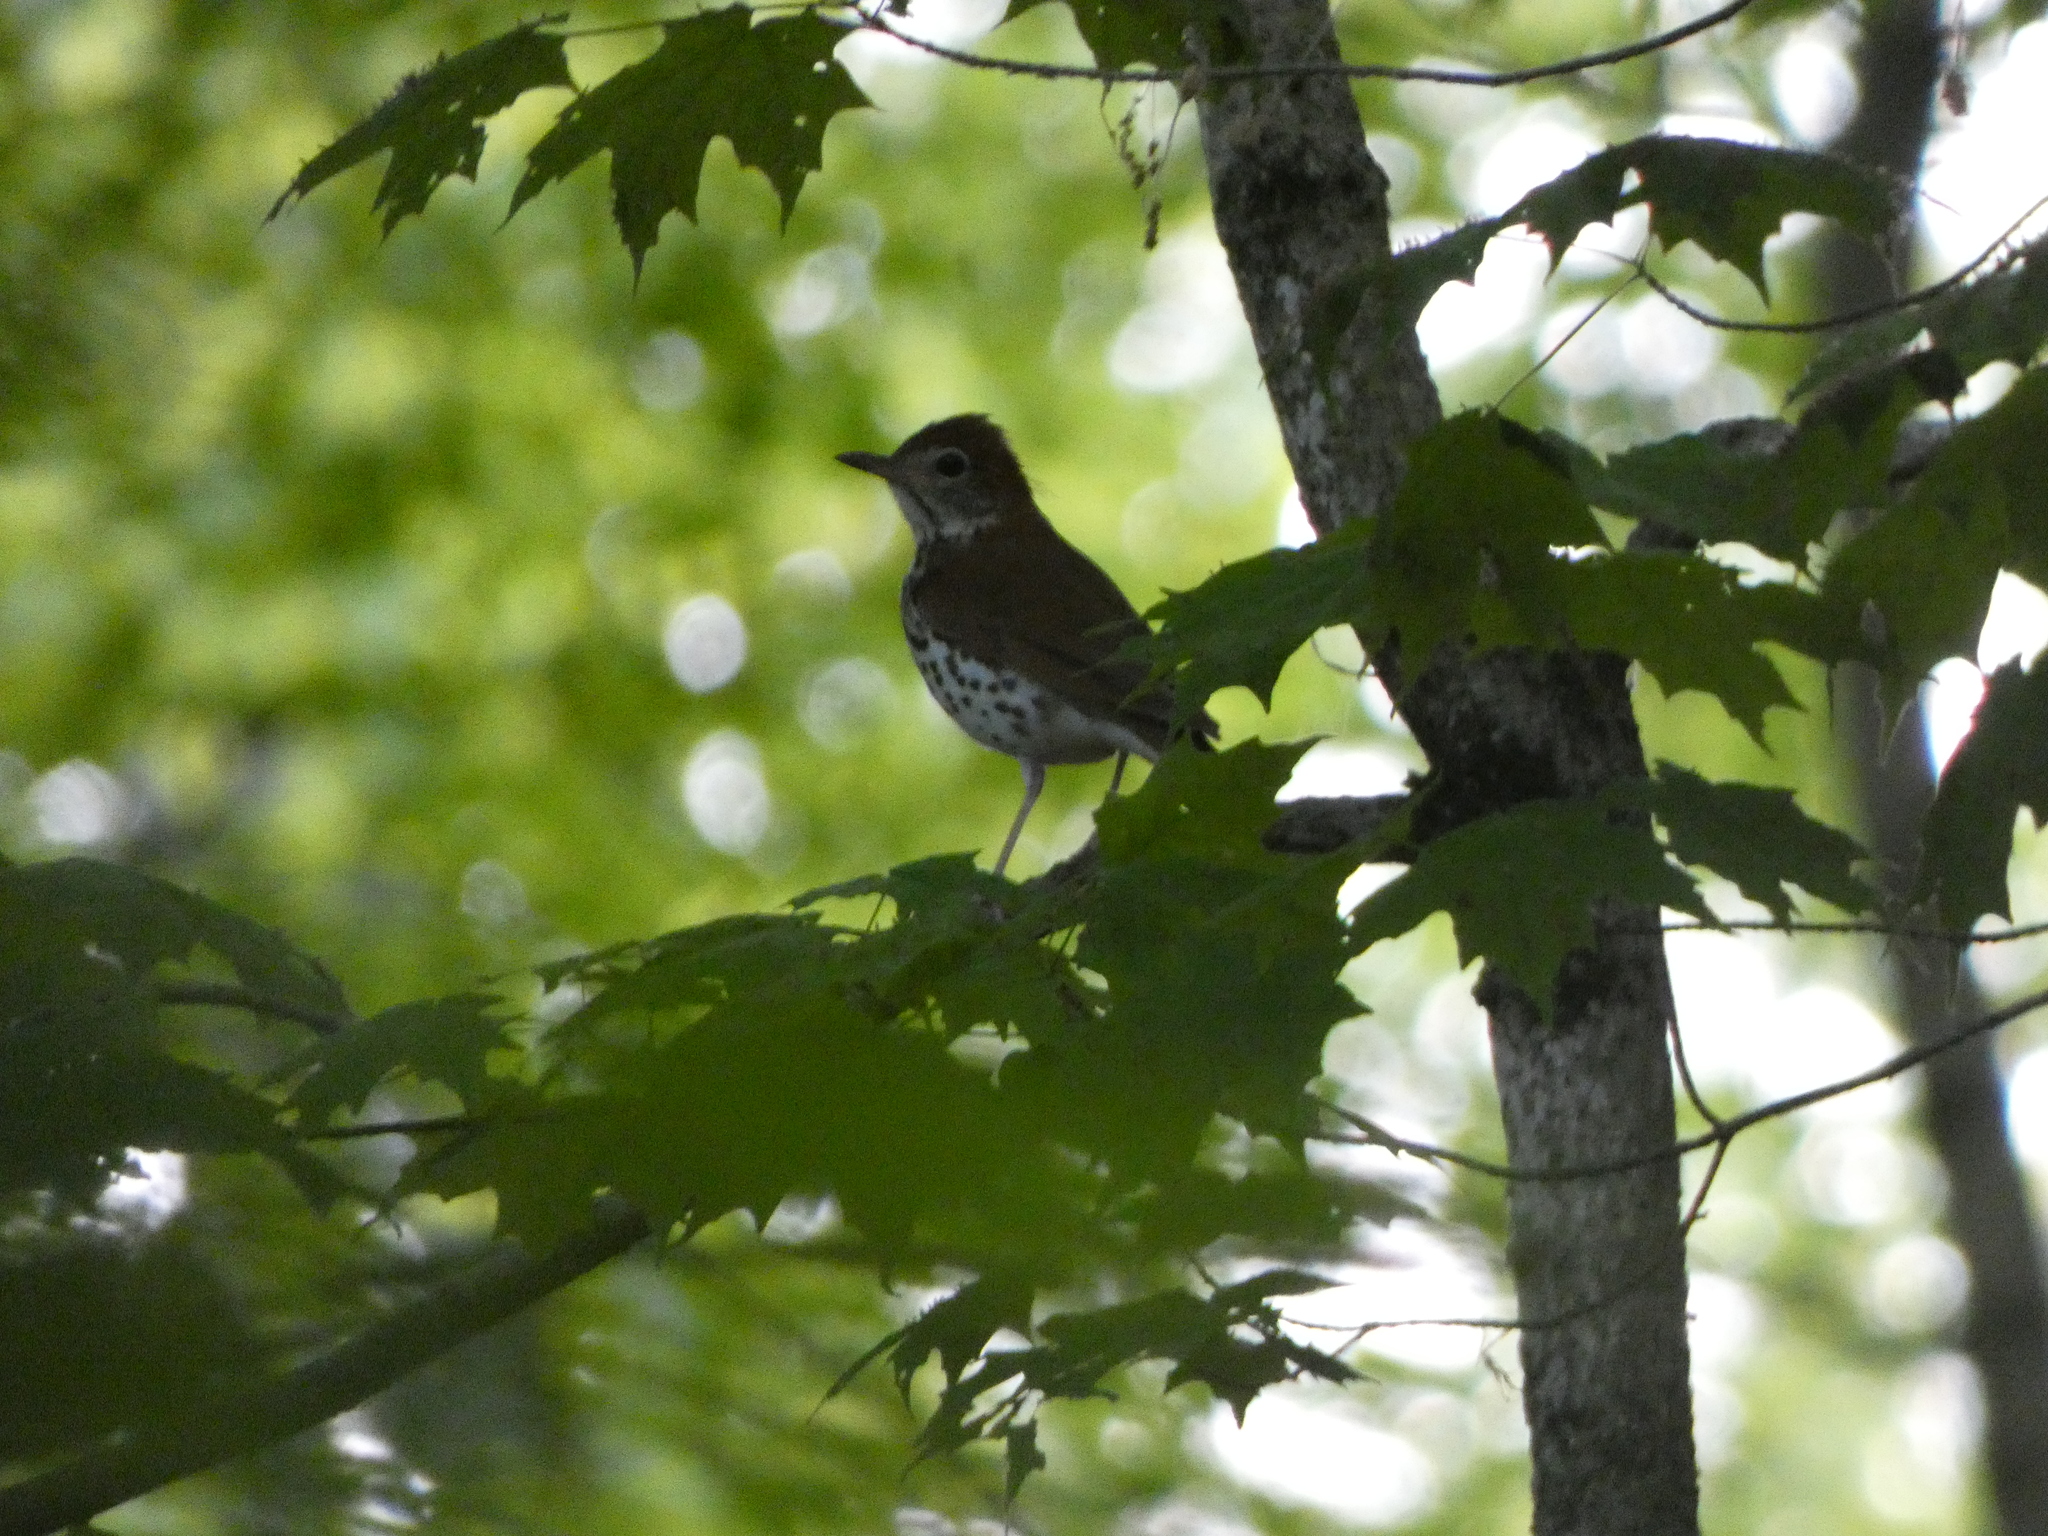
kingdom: Animalia
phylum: Chordata
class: Aves
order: Passeriformes
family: Parulidae
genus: Seiurus
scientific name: Seiurus aurocapilla
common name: Ovenbird
